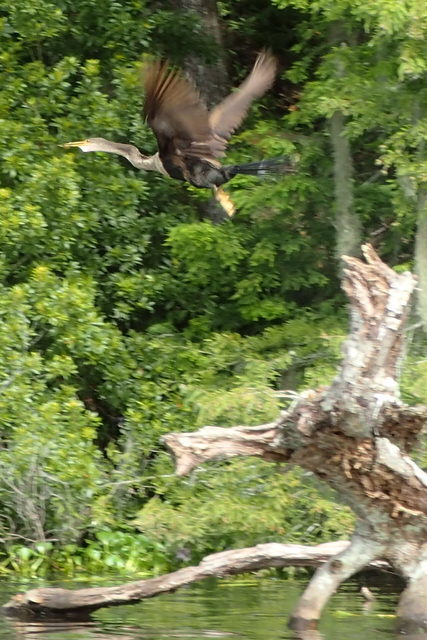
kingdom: Animalia
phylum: Chordata
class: Aves
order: Suliformes
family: Anhingidae
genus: Anhinga
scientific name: Anhinga anhinga
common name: Anhinga
